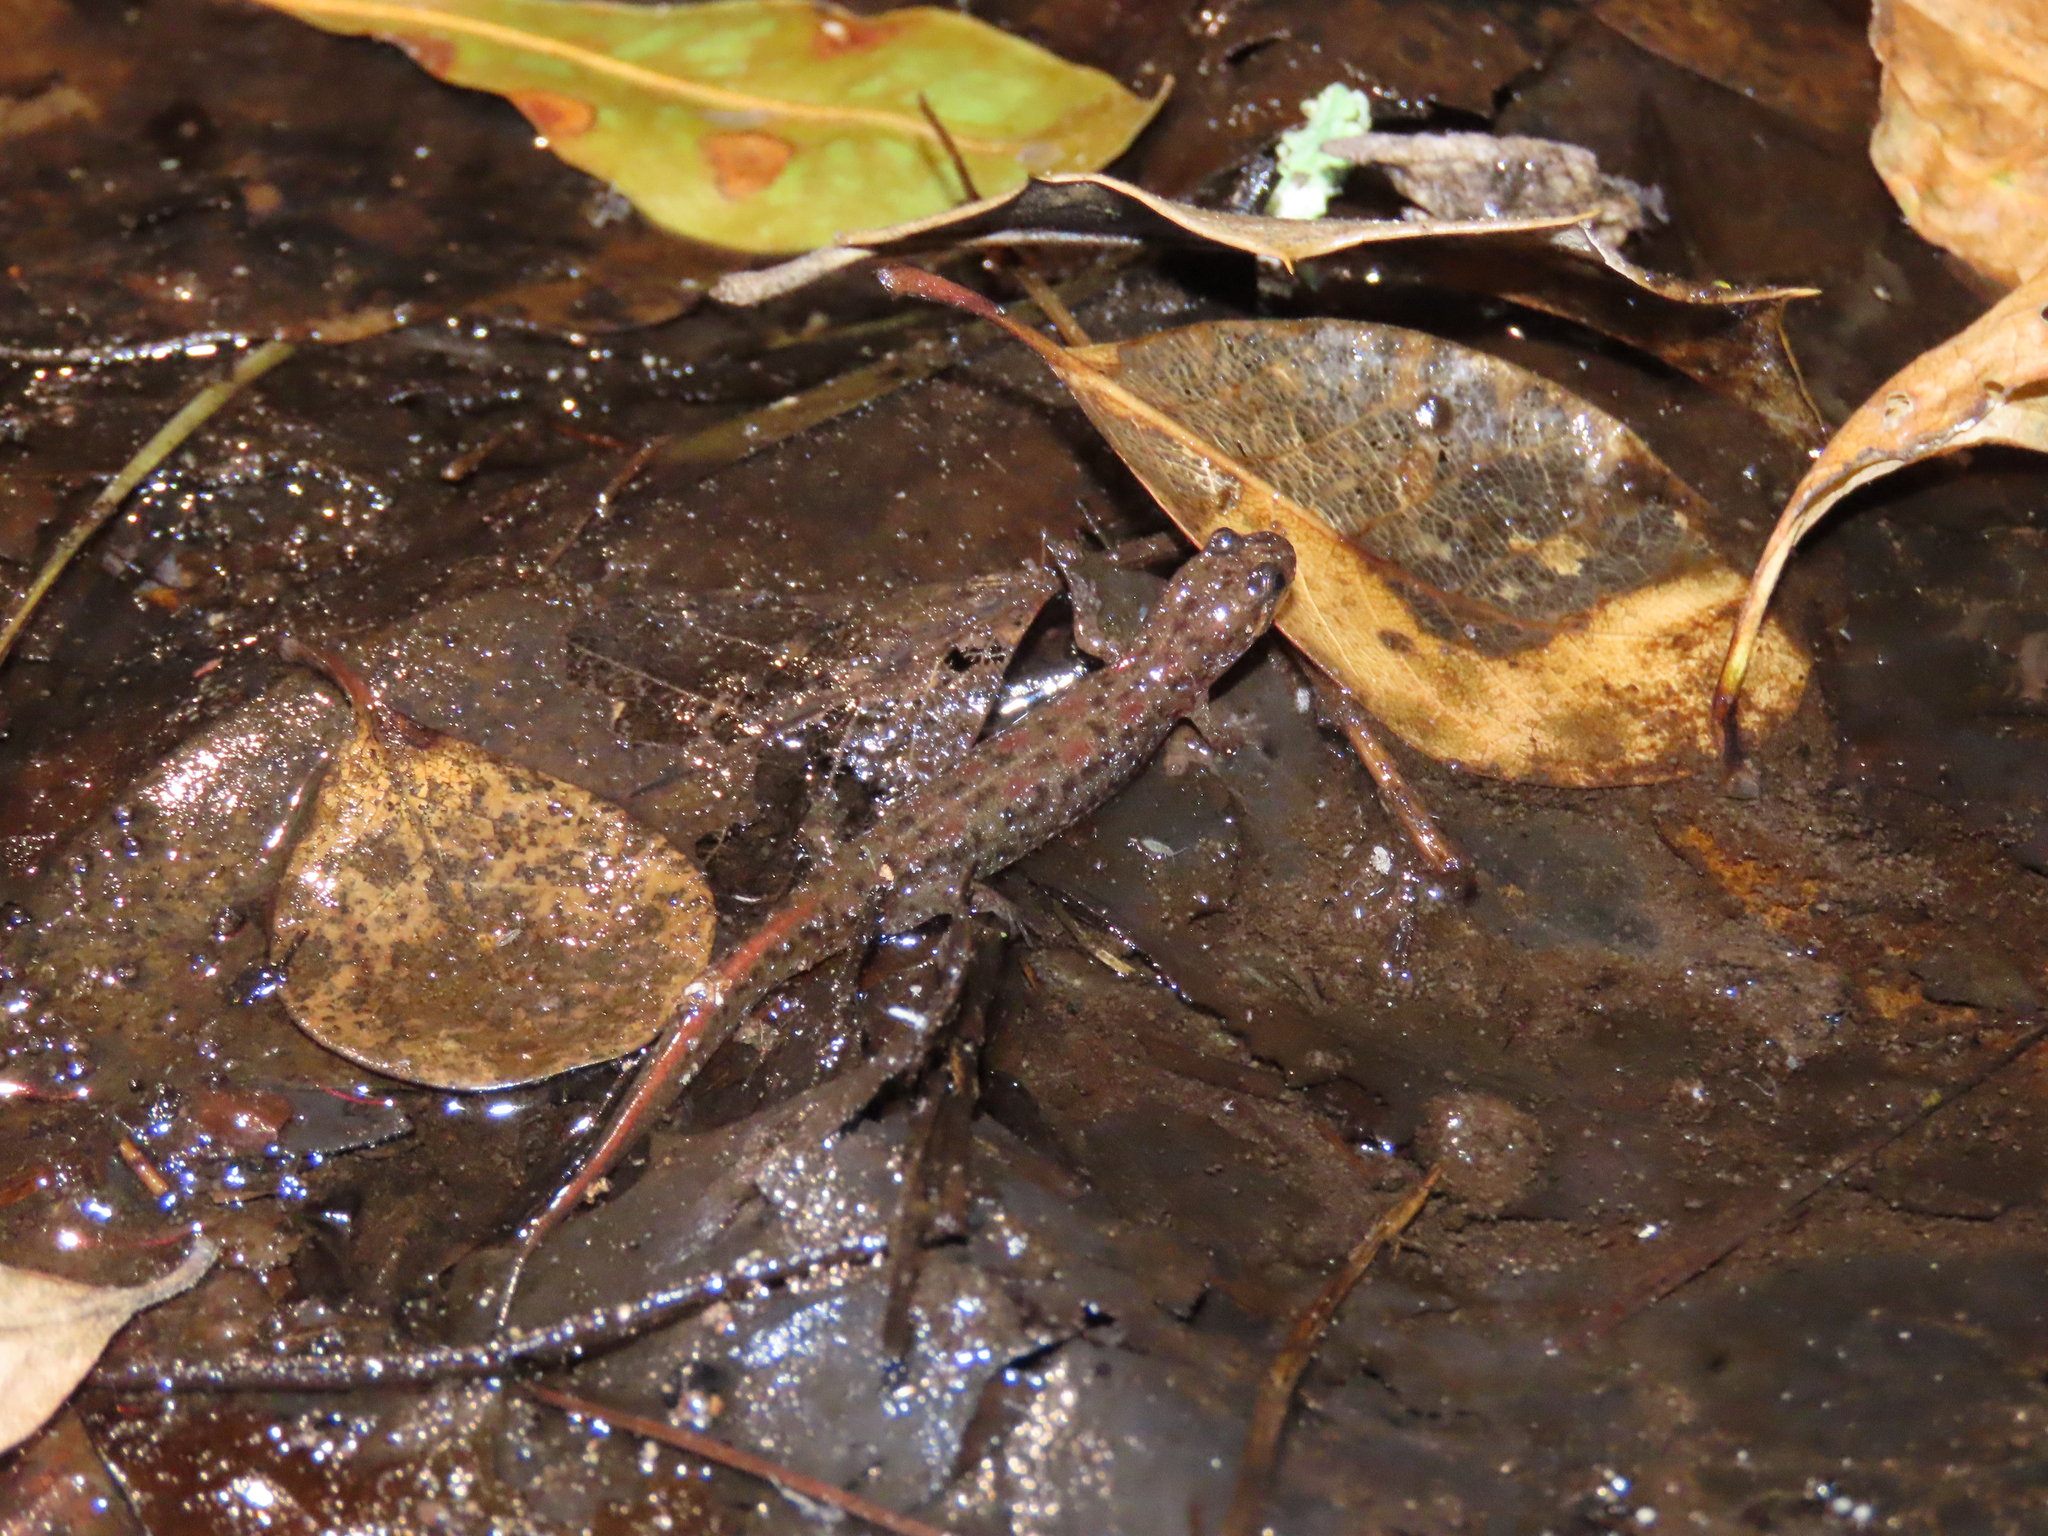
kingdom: Animalia
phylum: Chordata
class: Amphibia
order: Caudata
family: Plethodontidae
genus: Desmognathus
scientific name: Desmognathus fuscus
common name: Northern dusky salamander
